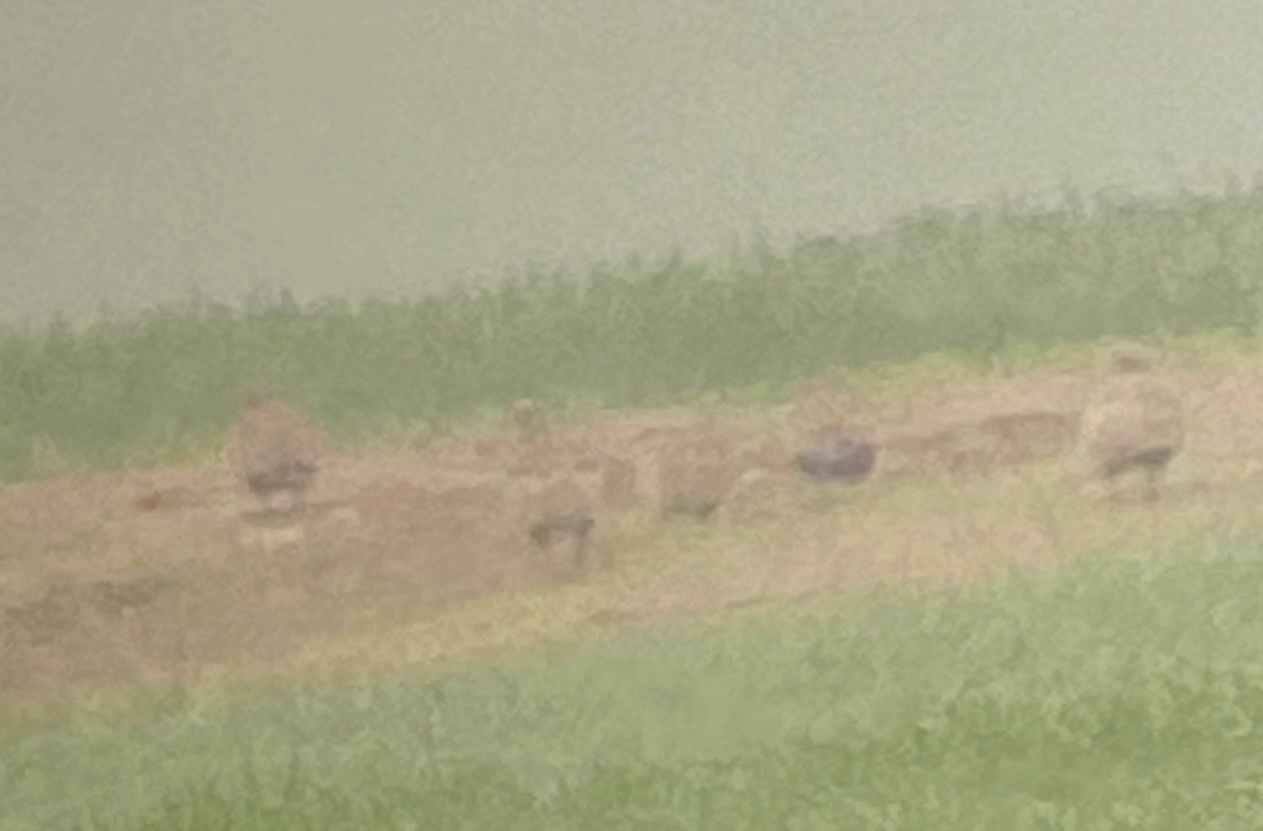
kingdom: Animalia
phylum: Chordata
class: Aves
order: Pteroclidiformes
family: Pteroclididae
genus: Pterocles
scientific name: Pterocles orientalis
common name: Black-bellied sandgrouse
